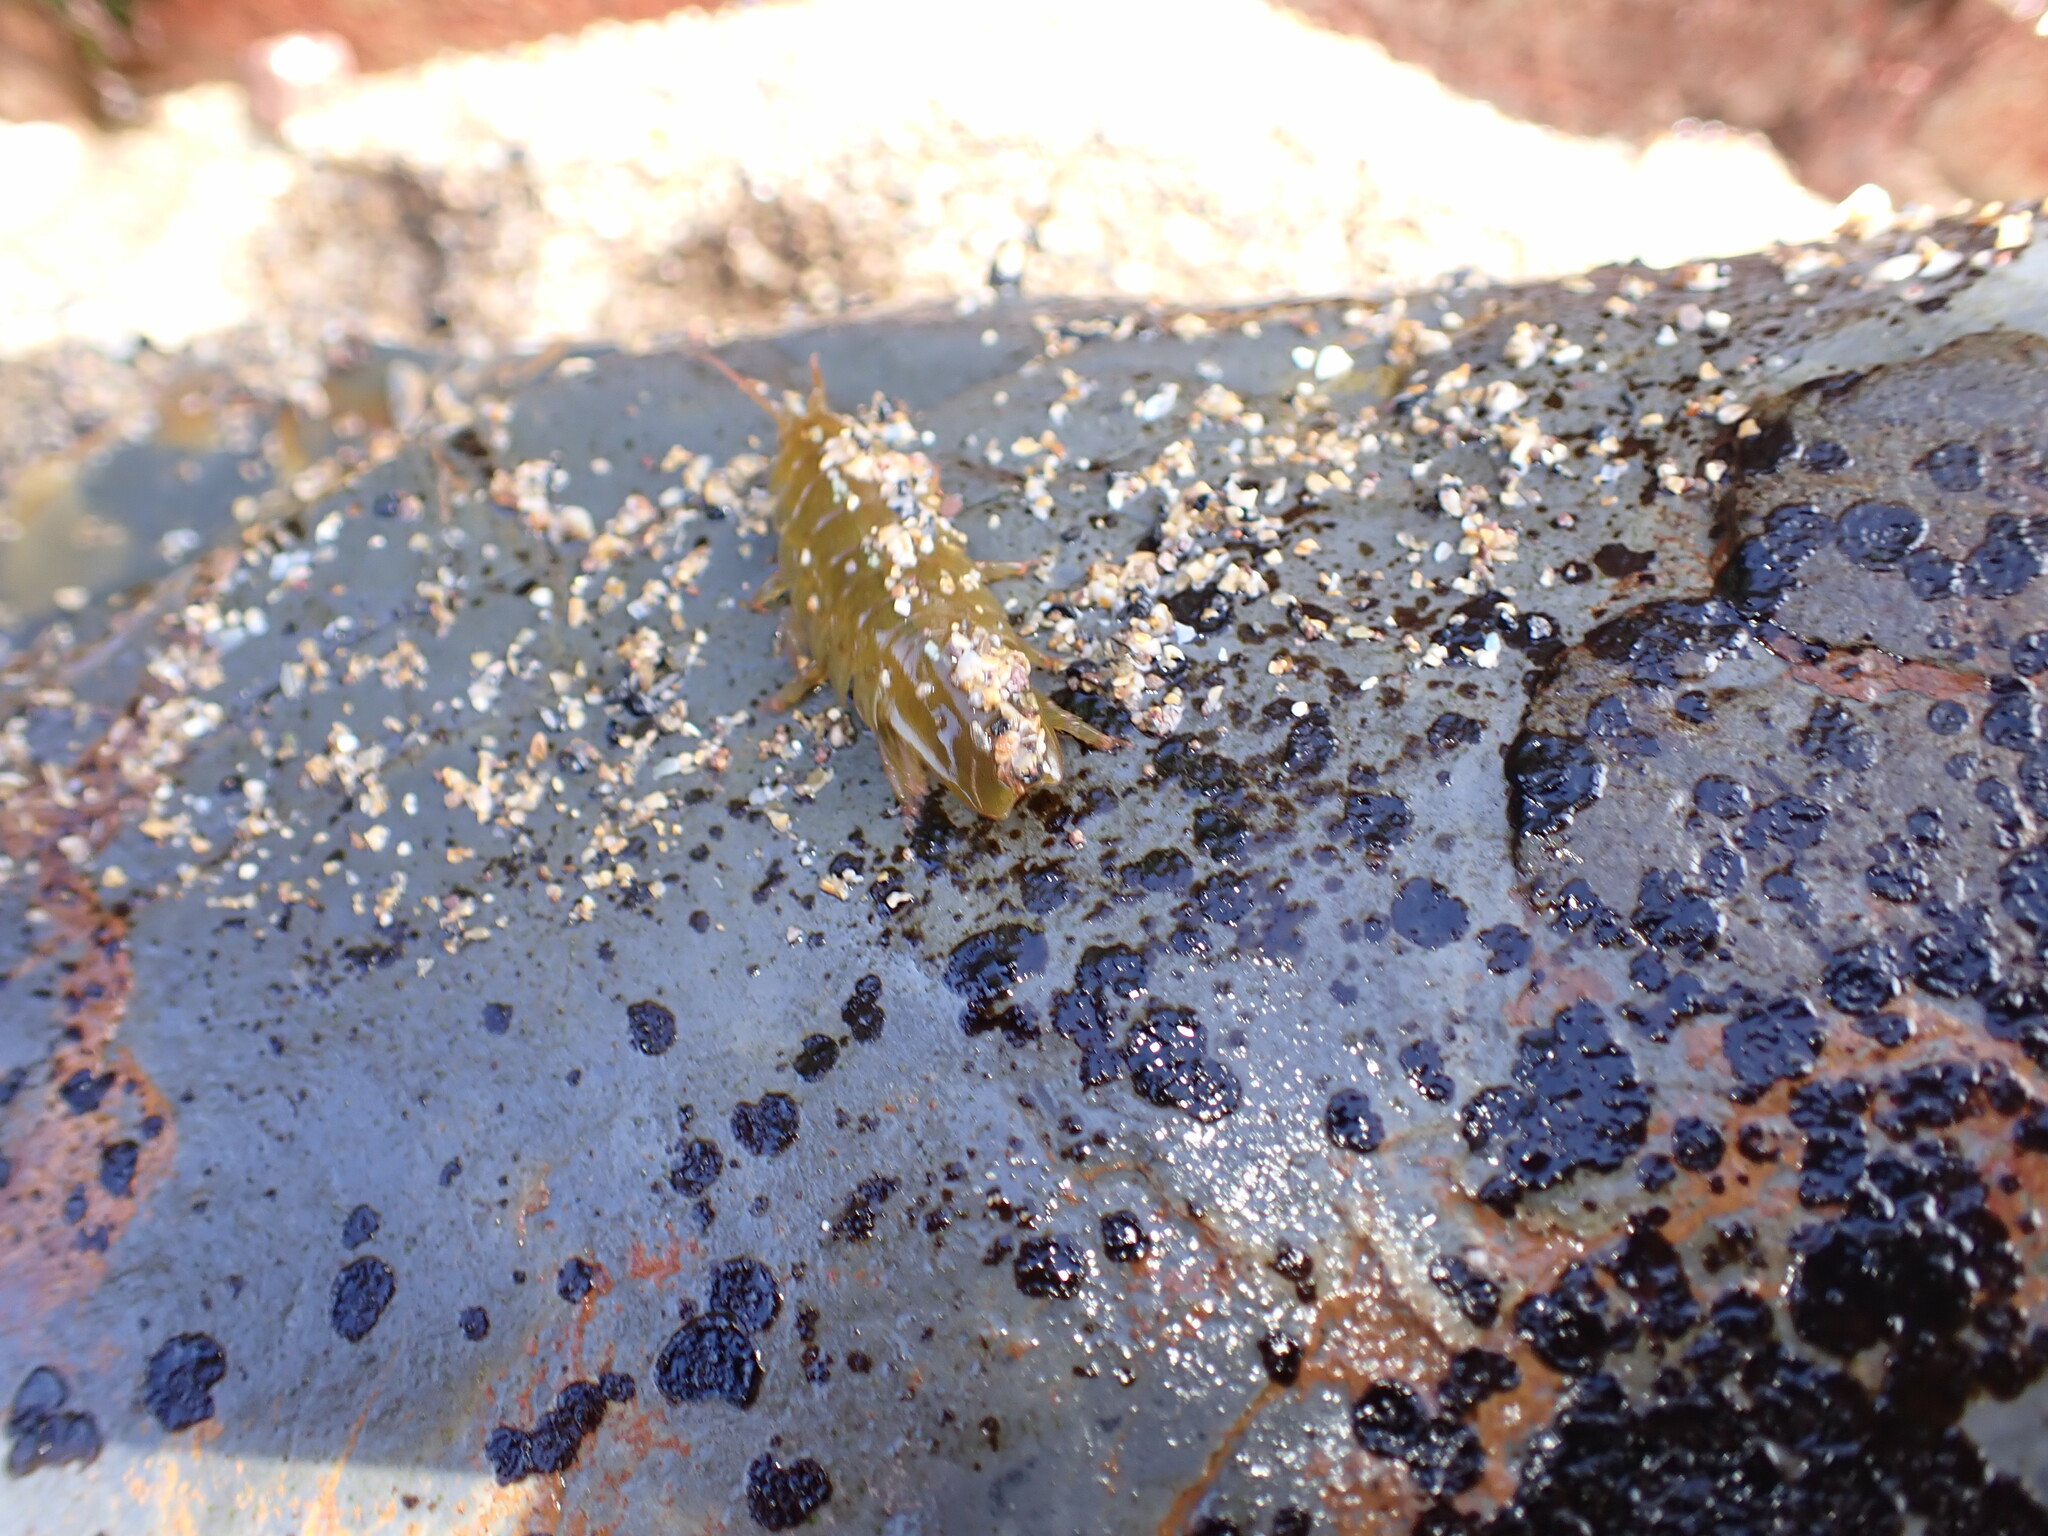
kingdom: Animalia
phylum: Arthropoda
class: Malacostraca
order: Isopoda
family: Idoteidae
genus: Idotea
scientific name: Idotea emarginata
